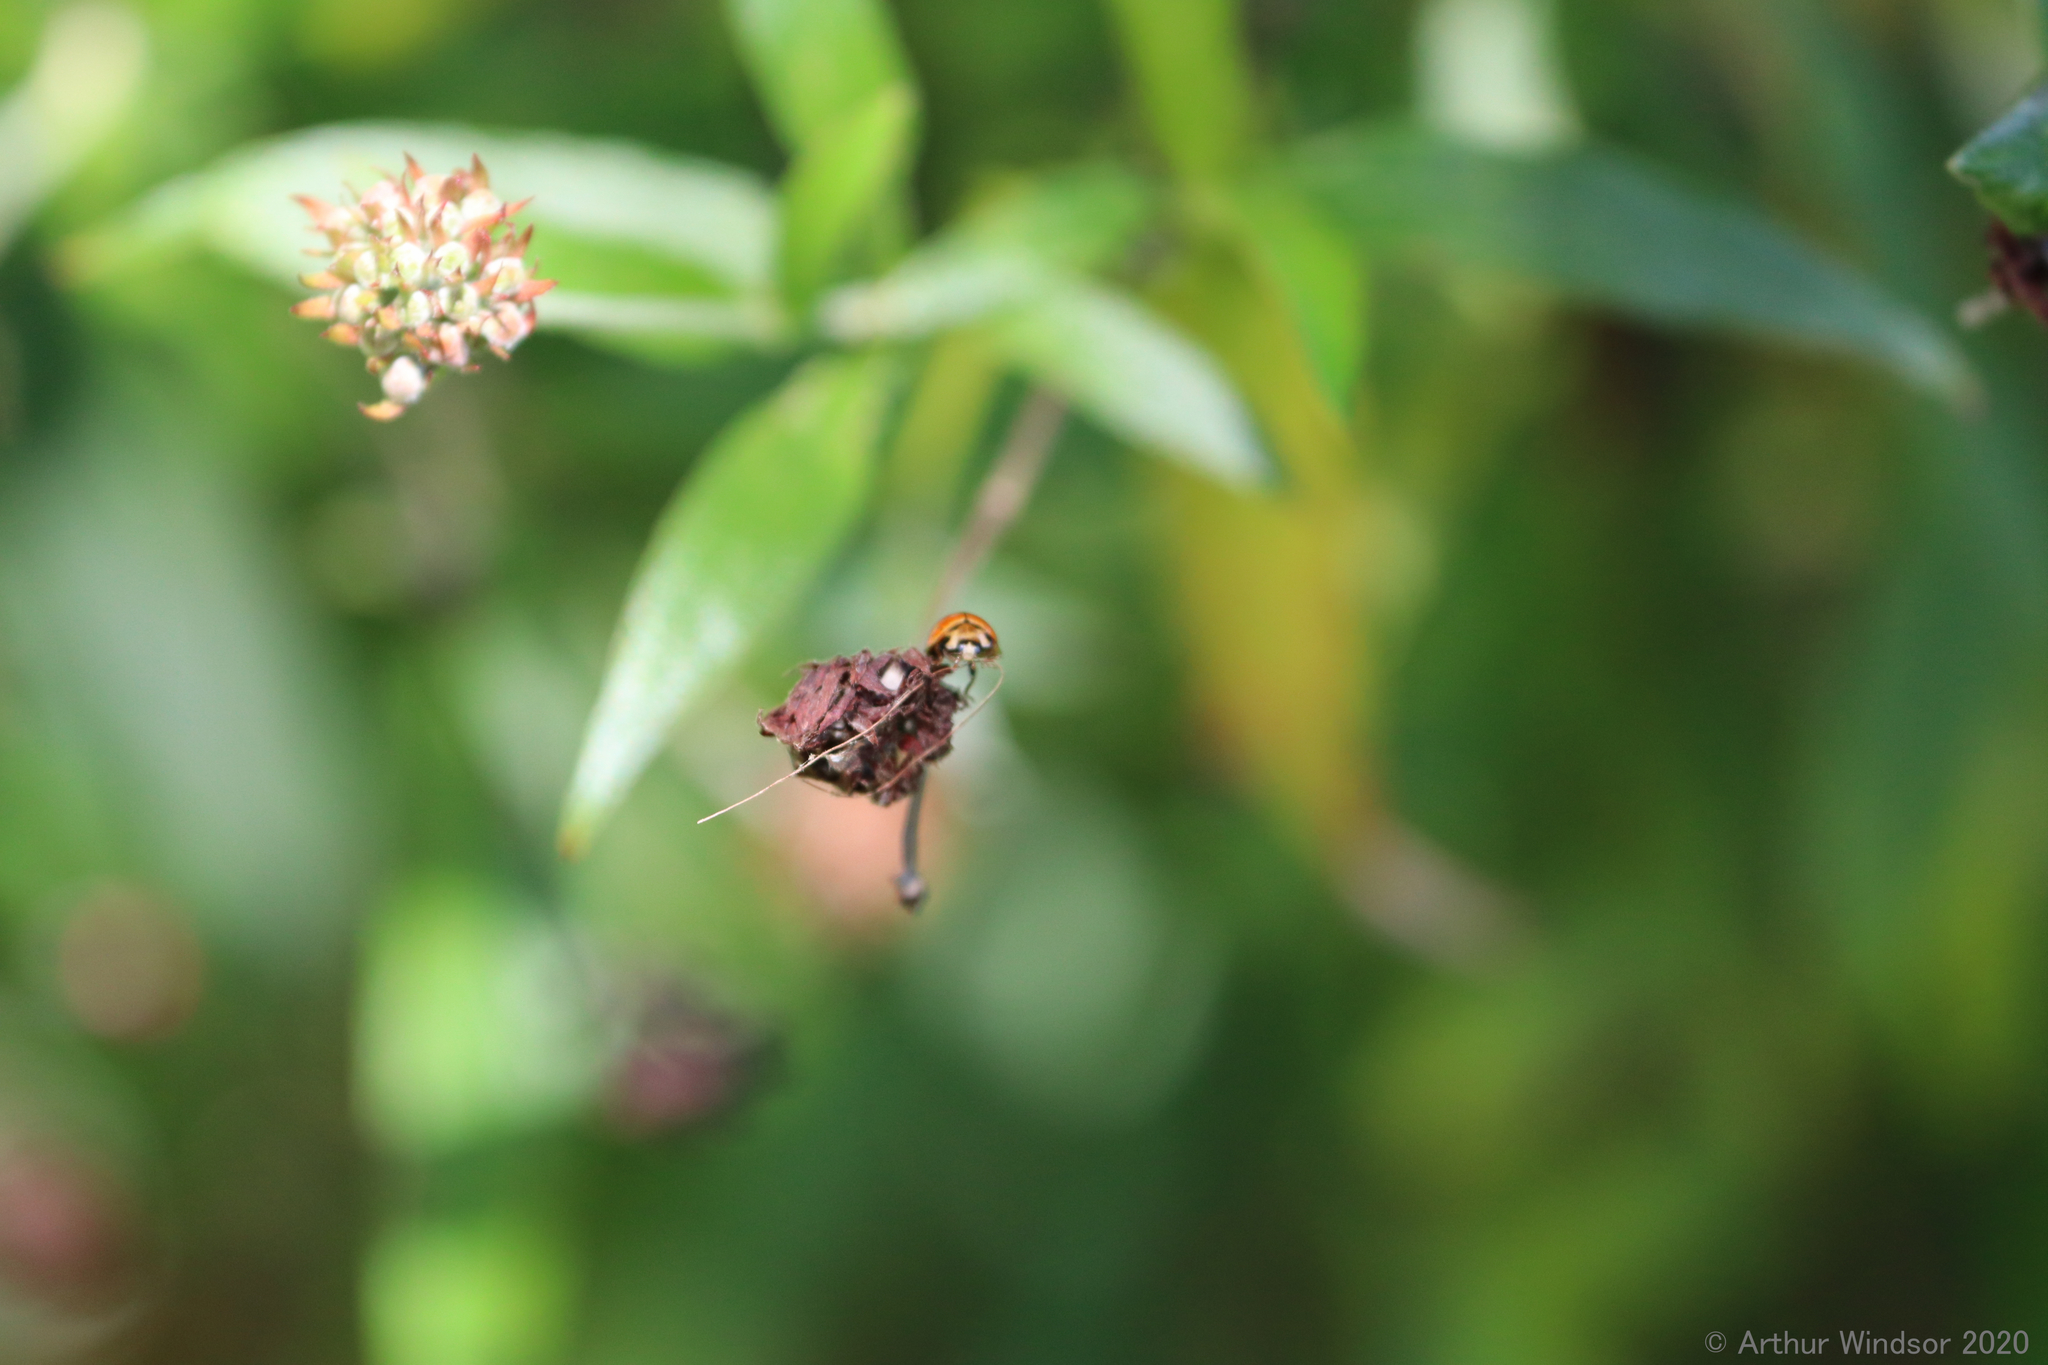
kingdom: Animalia
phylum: Arthropoda
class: Insecta
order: Coleoptera
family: Coccinellidae
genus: Coelophora
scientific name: Coelophora inaequalis
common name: Common australian lady beetle
